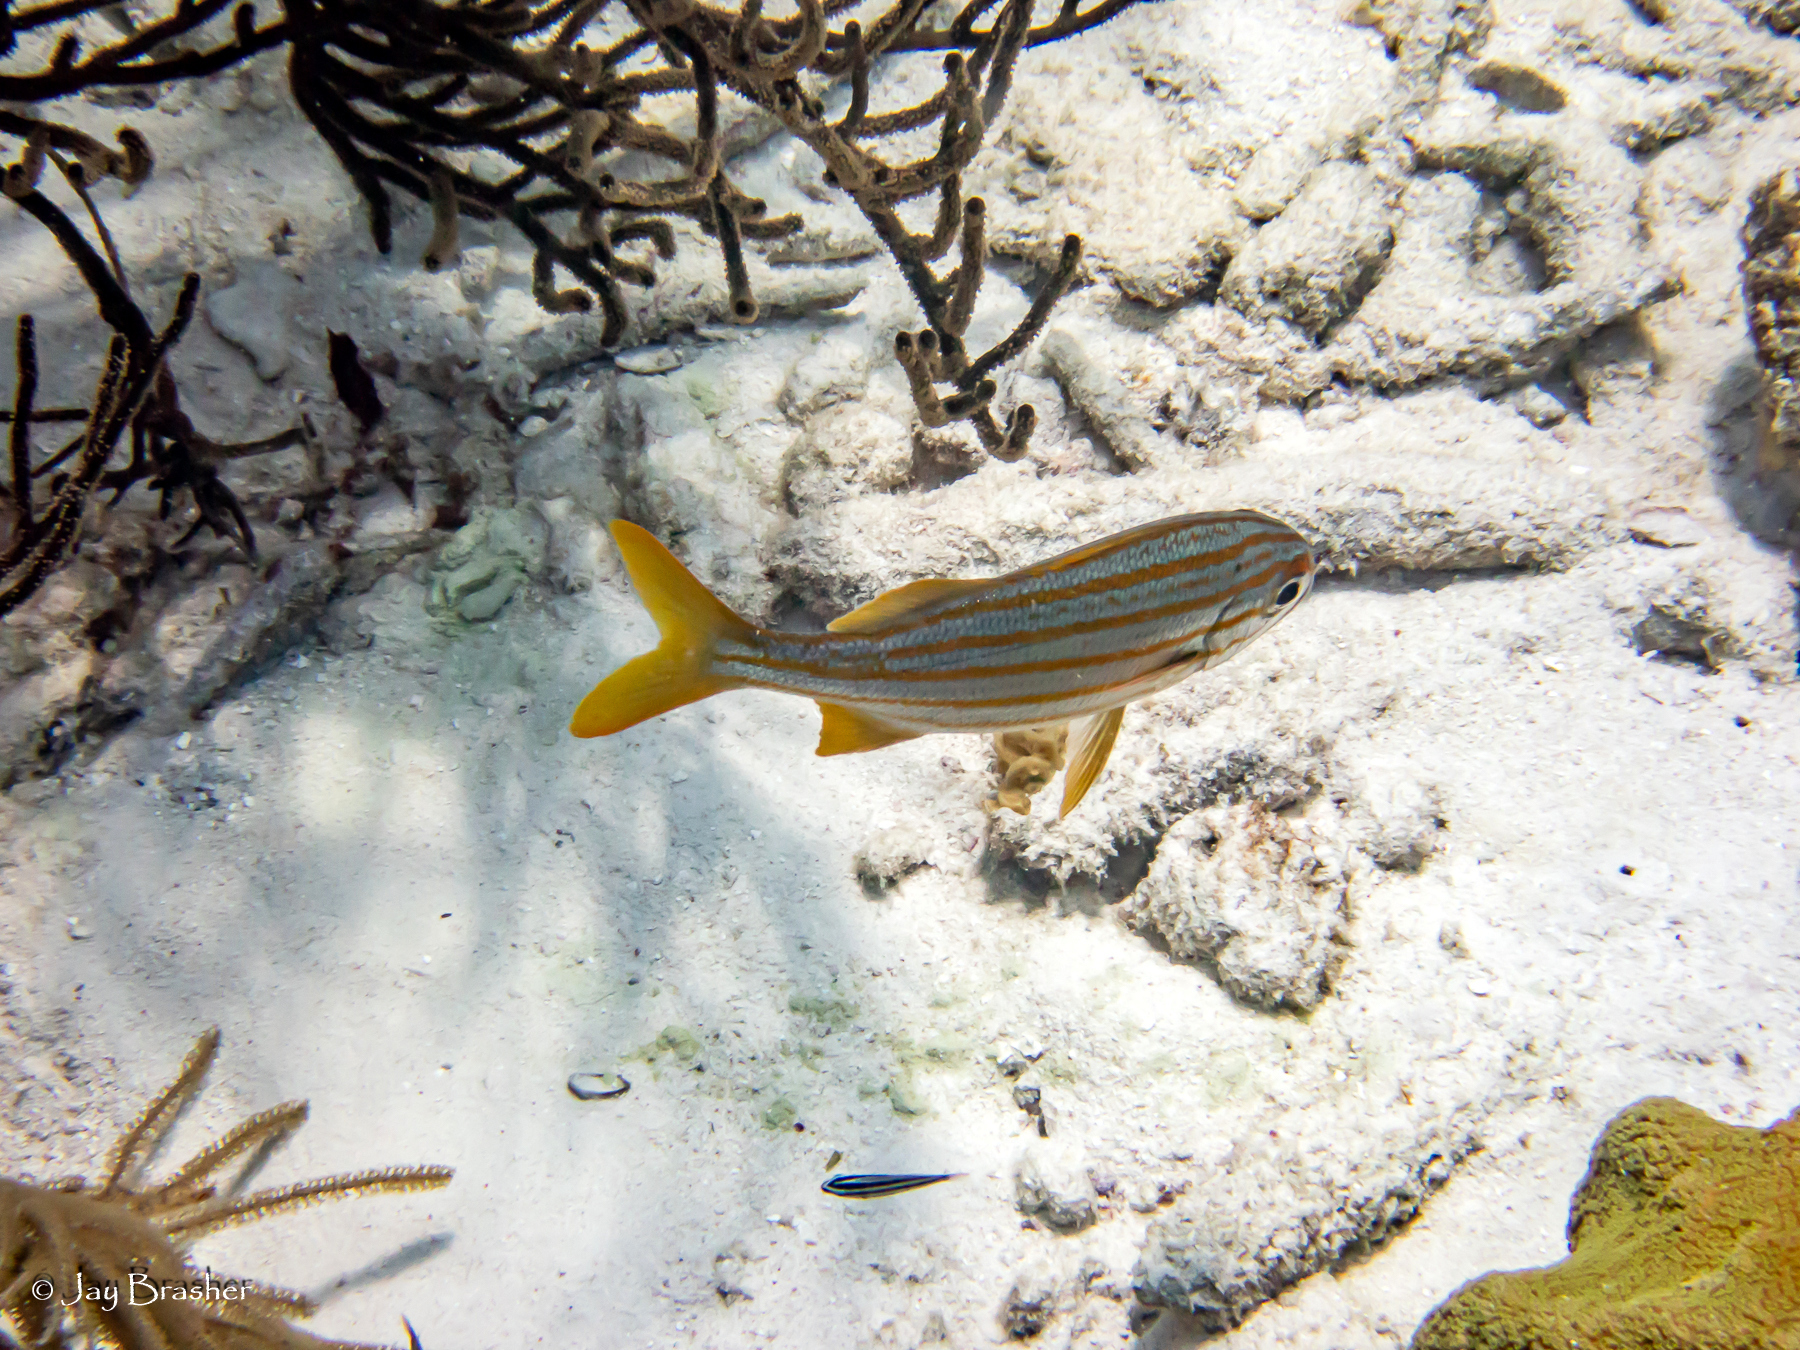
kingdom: Animalia
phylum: Chordata
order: Perciformes
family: Haemulidae
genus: Haemulon
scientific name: Haemulon chrysargyreum
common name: Smallmouth grunt
